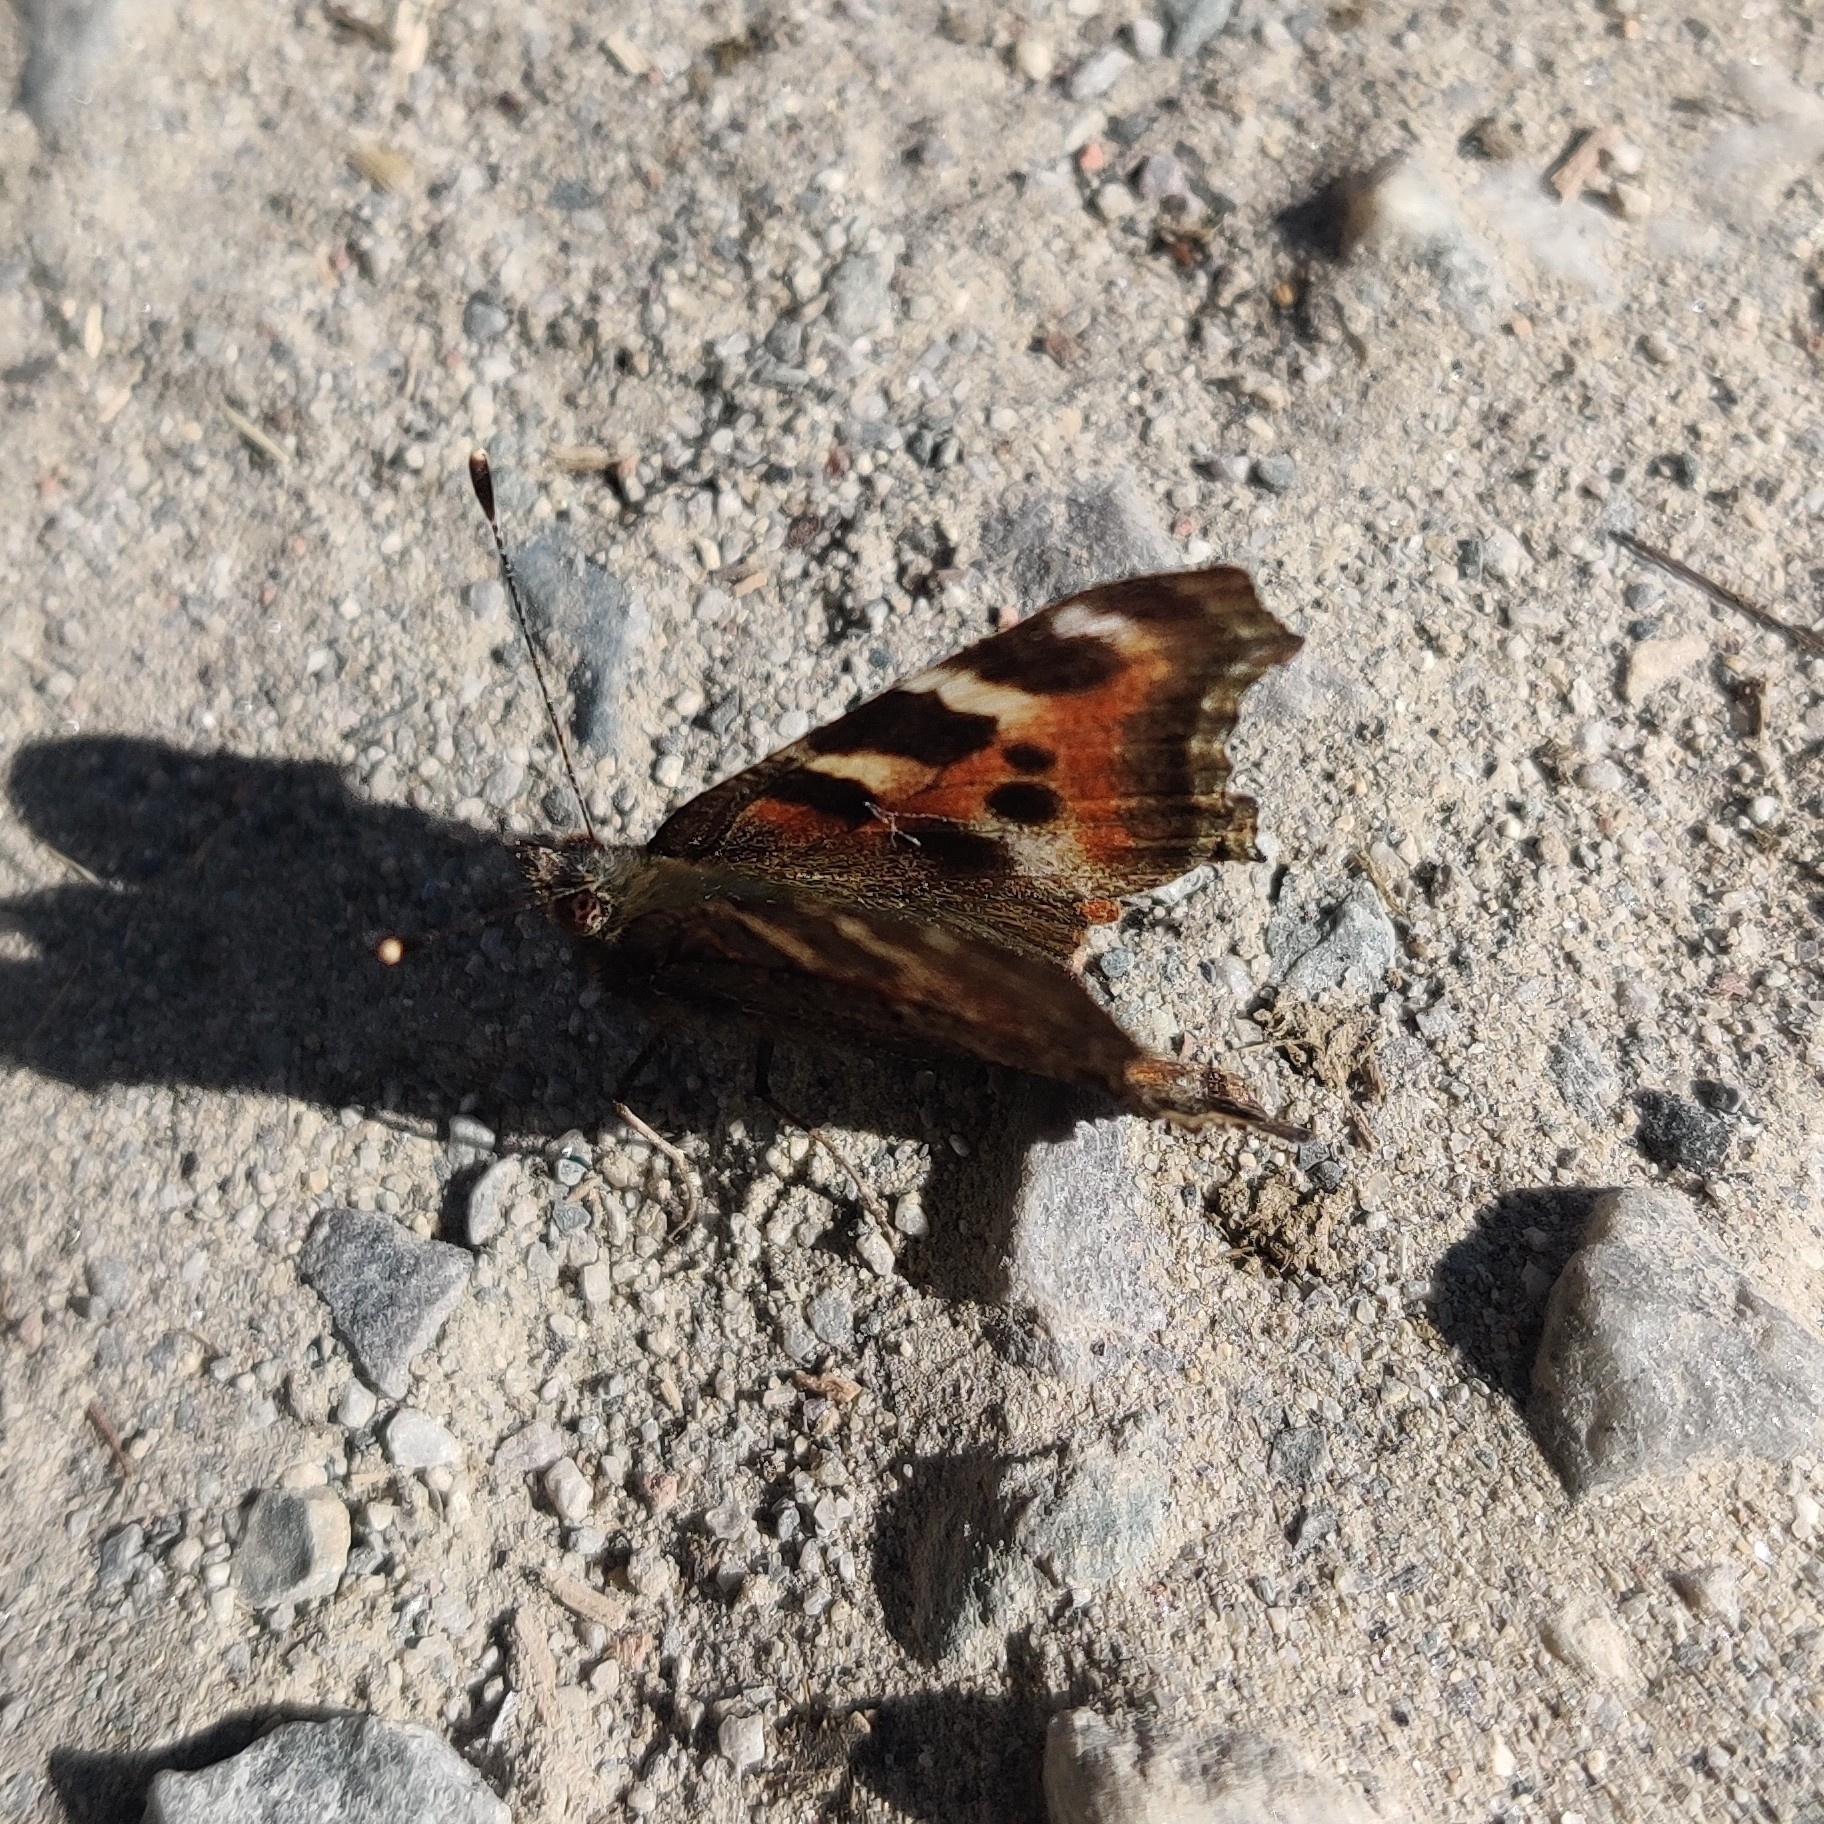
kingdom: Animalia
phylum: Arthropoda
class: Insecta
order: Lepidoptera
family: Nymphalidae
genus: Aglais
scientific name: Aglais caschmirensis
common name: Indian tortoiseshell
